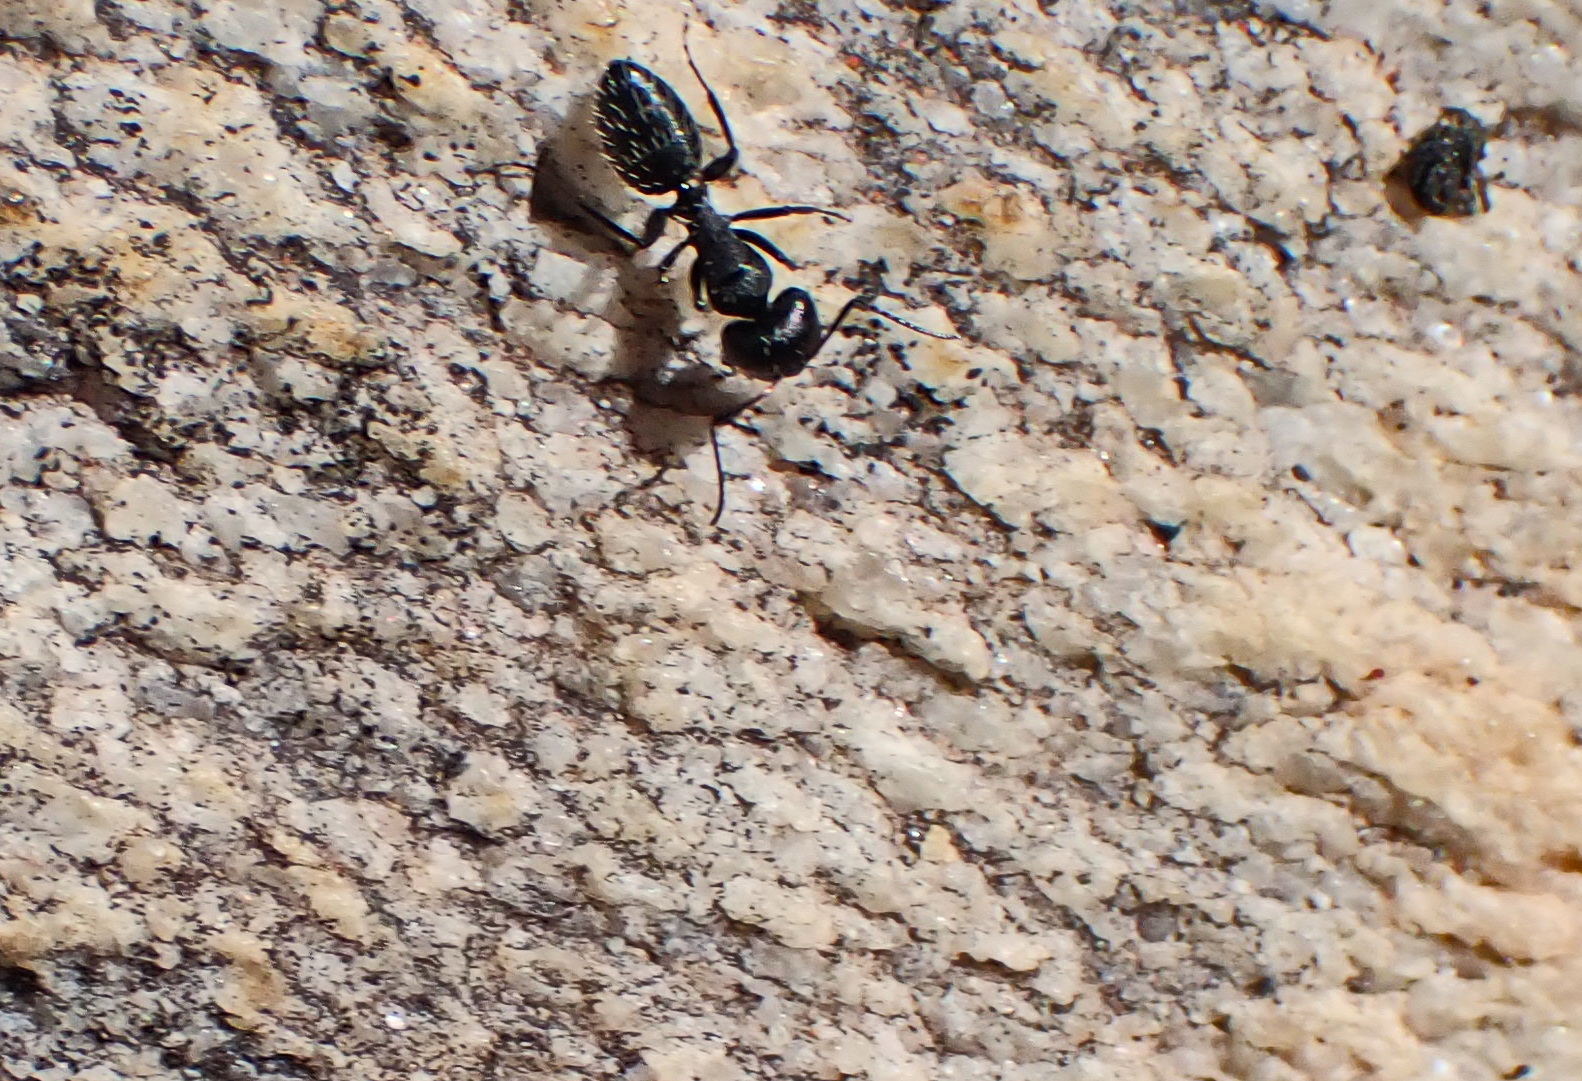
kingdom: Animalia
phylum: Arthropoda
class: Insecta
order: Hymenoptera
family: Formicidae
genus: Camponotus
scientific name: Camponotus niveosetosus
